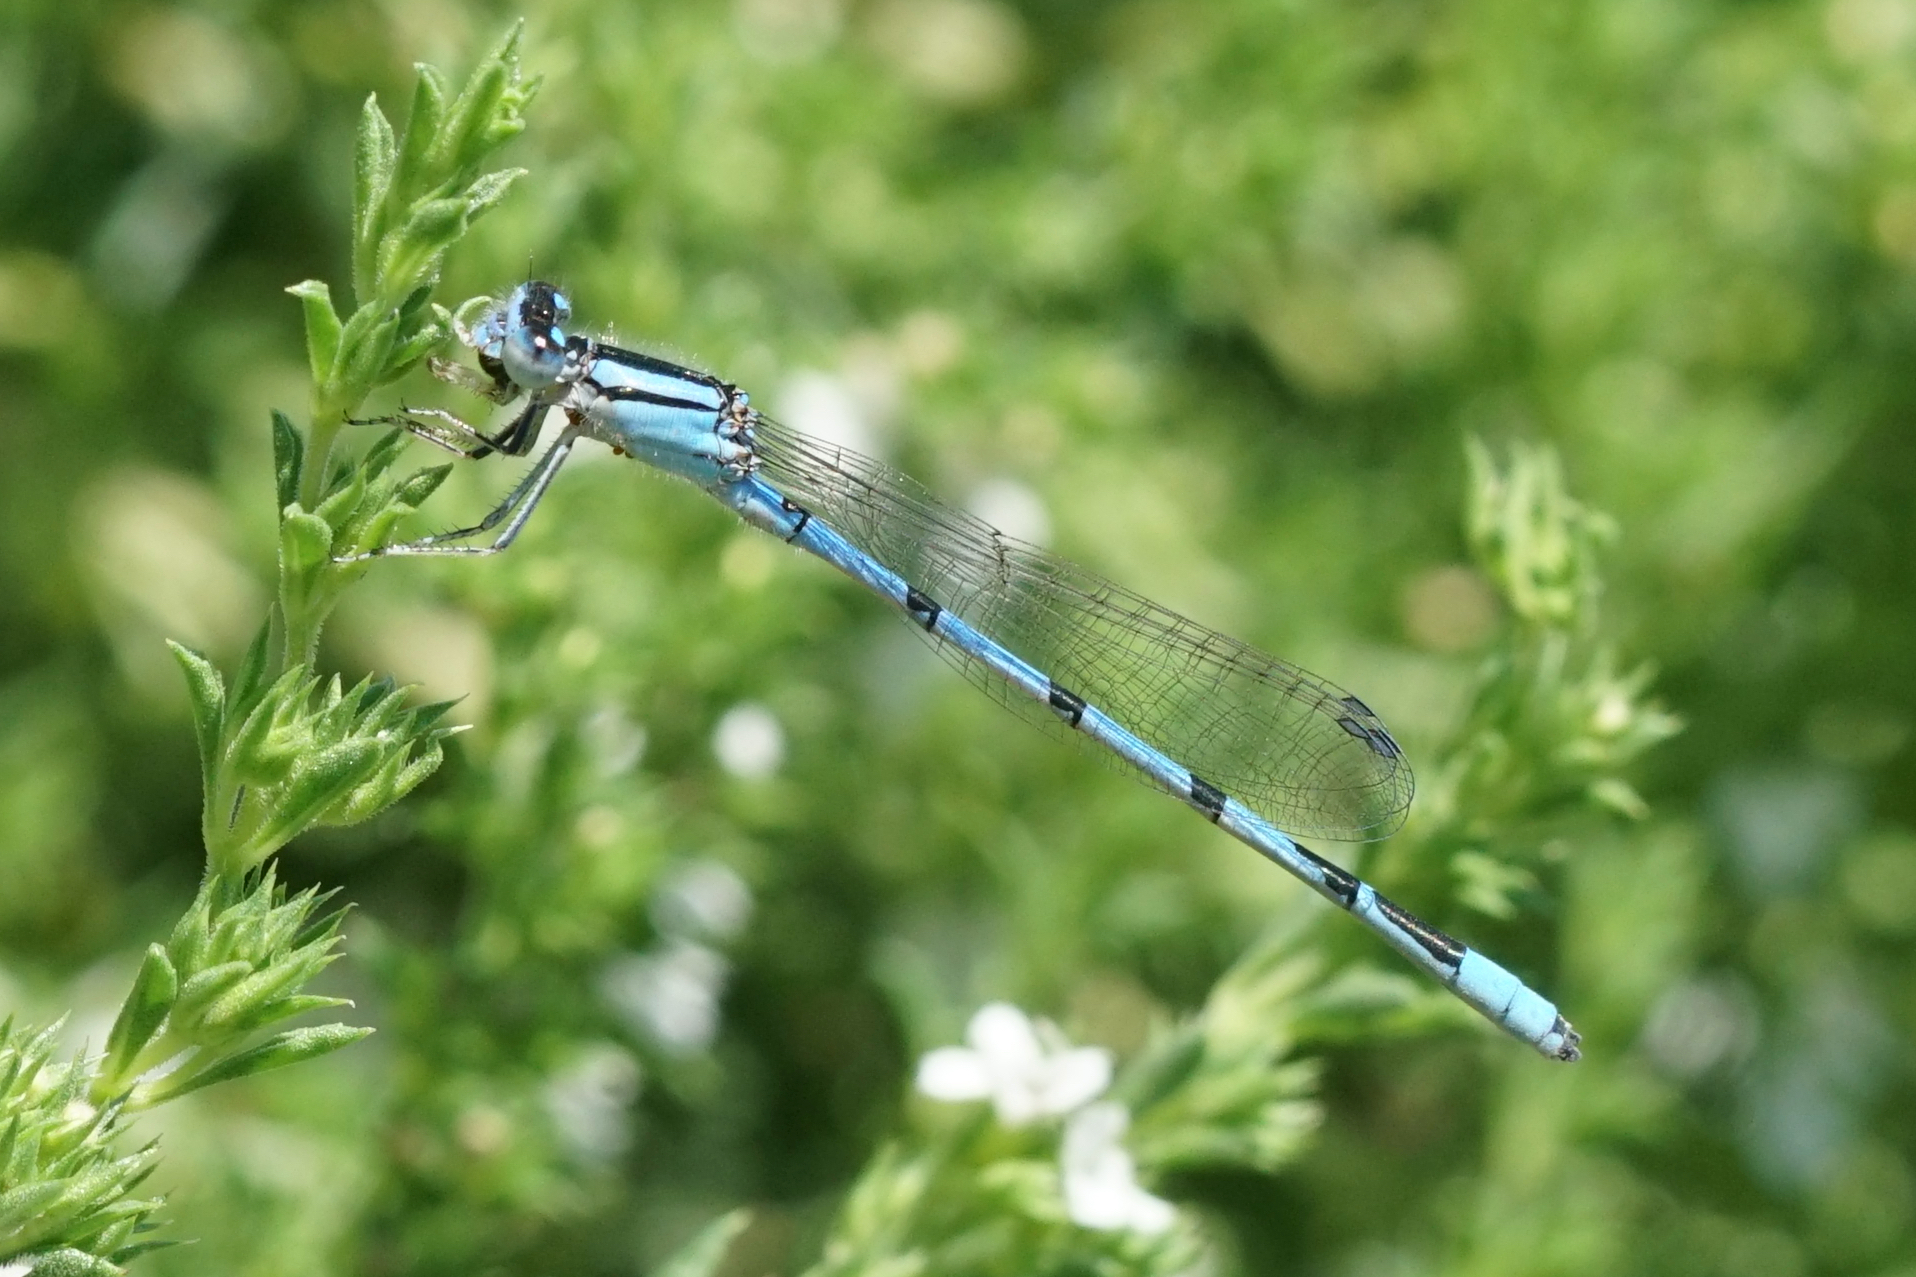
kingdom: Animalia
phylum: Arthropoda
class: Insecta
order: Odonata
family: Coenagrionidae
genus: Enallagma
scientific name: Enallagma civile
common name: Damselfly
